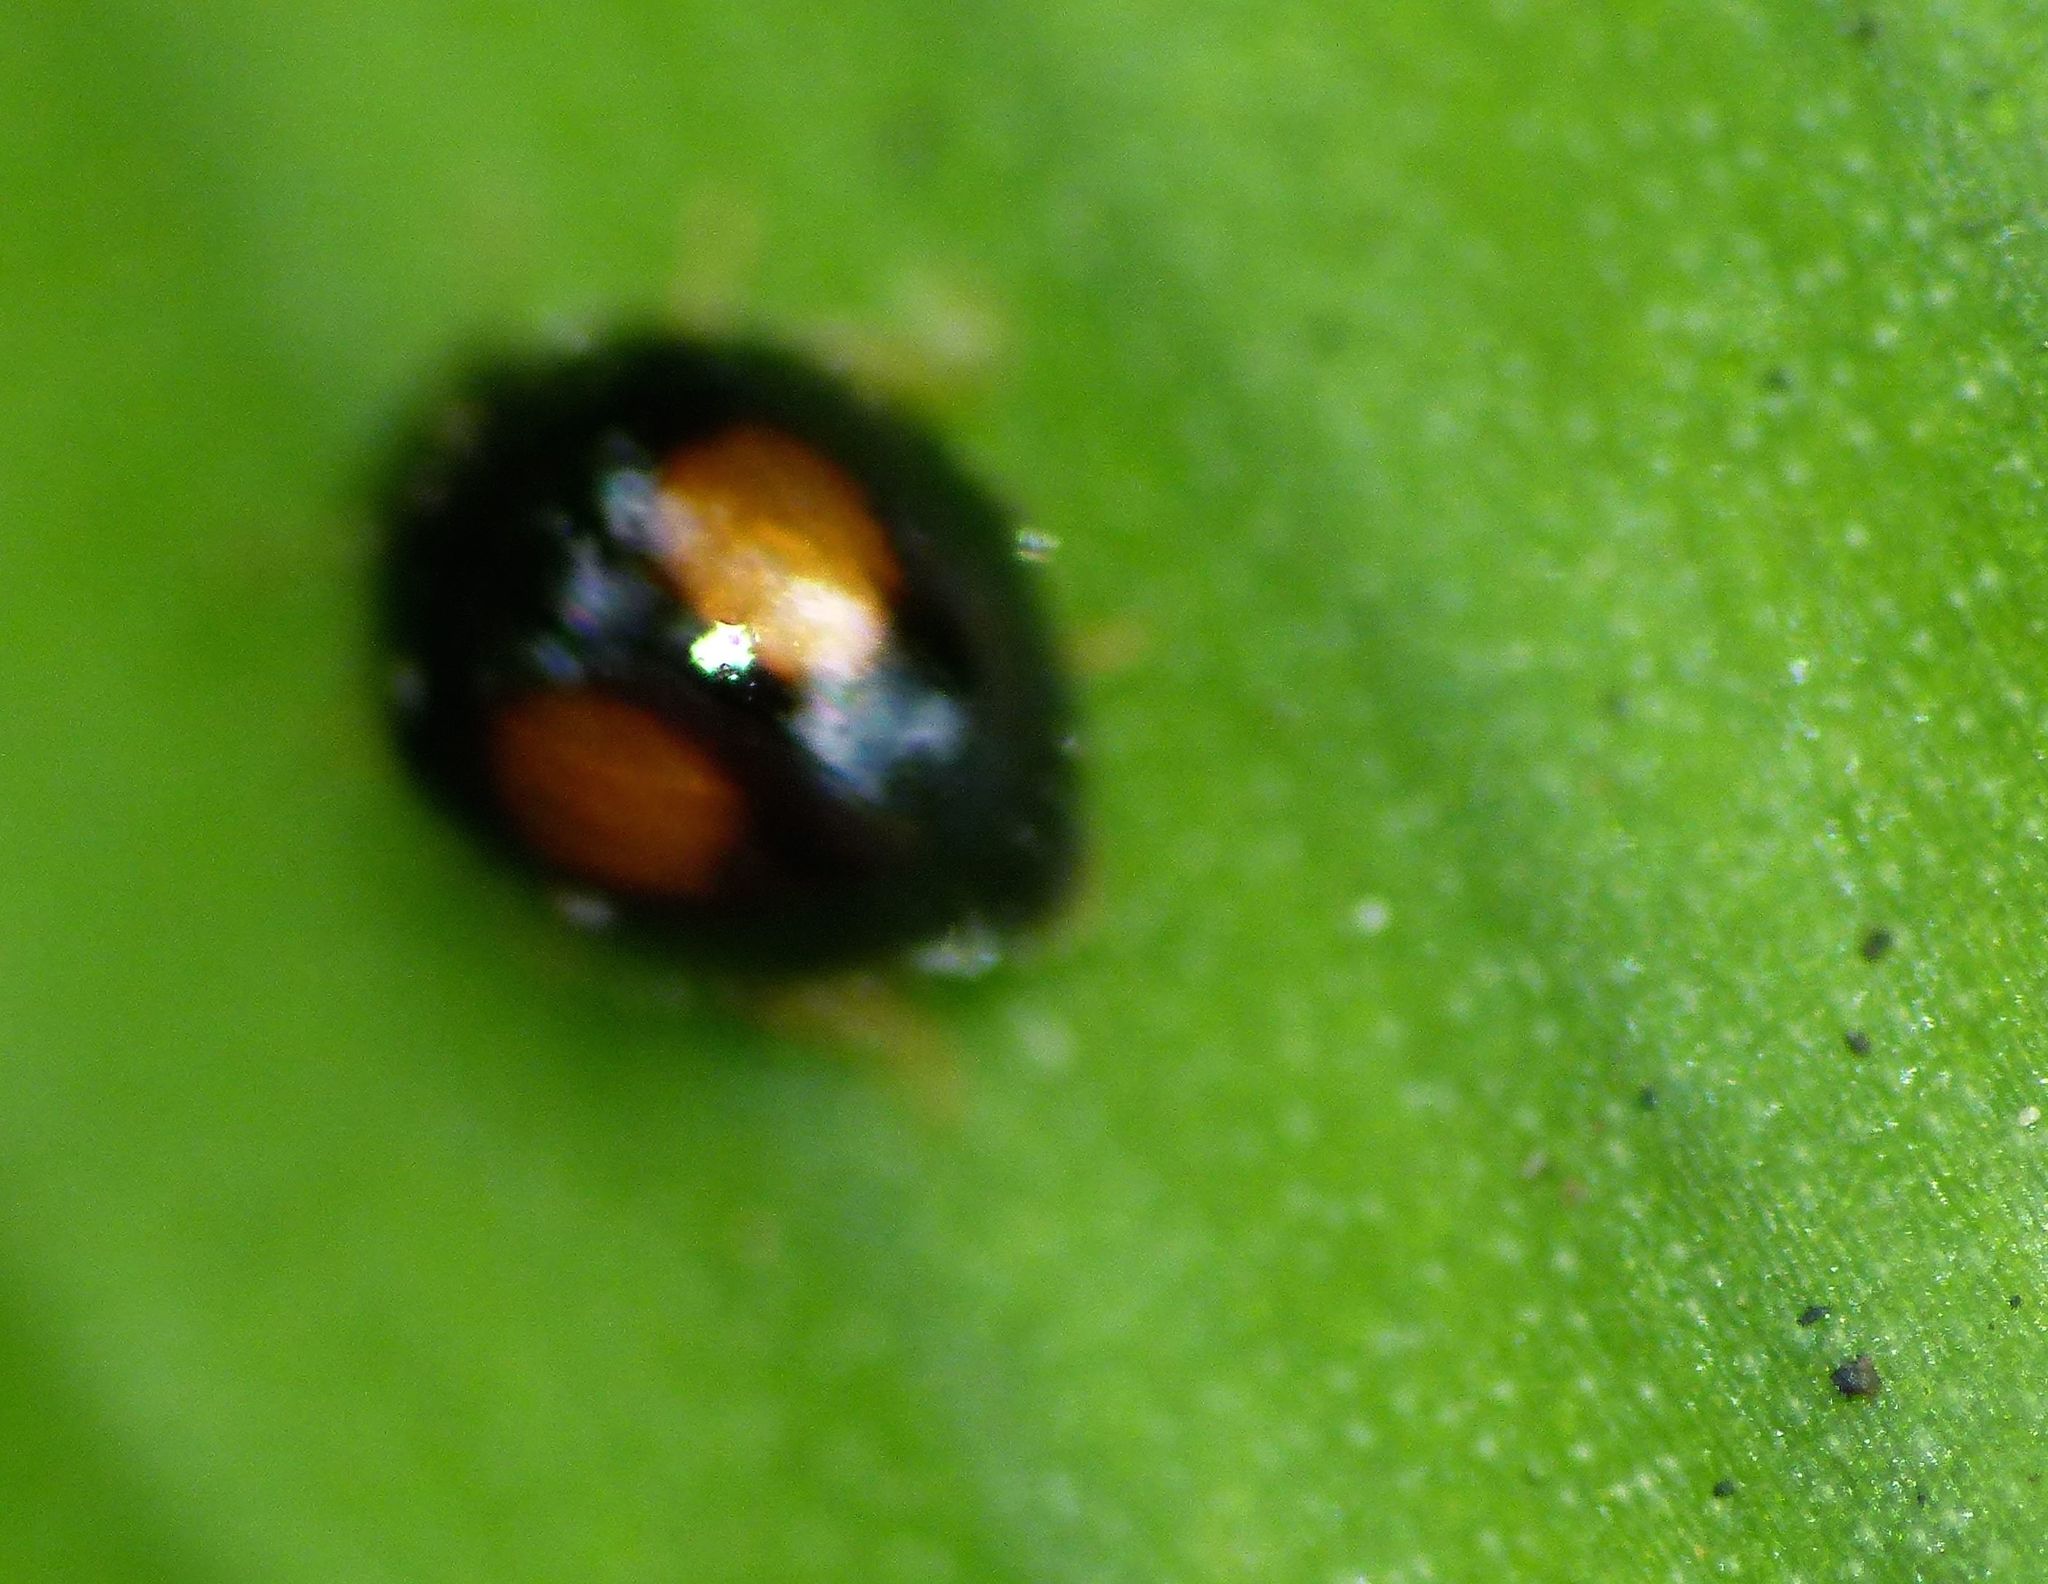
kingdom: Animalia
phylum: Arthropoda
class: Insecta
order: Coleoptera
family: Coccinellidae
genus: Serangium
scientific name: Serangium maculigerum
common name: Lady beetle
